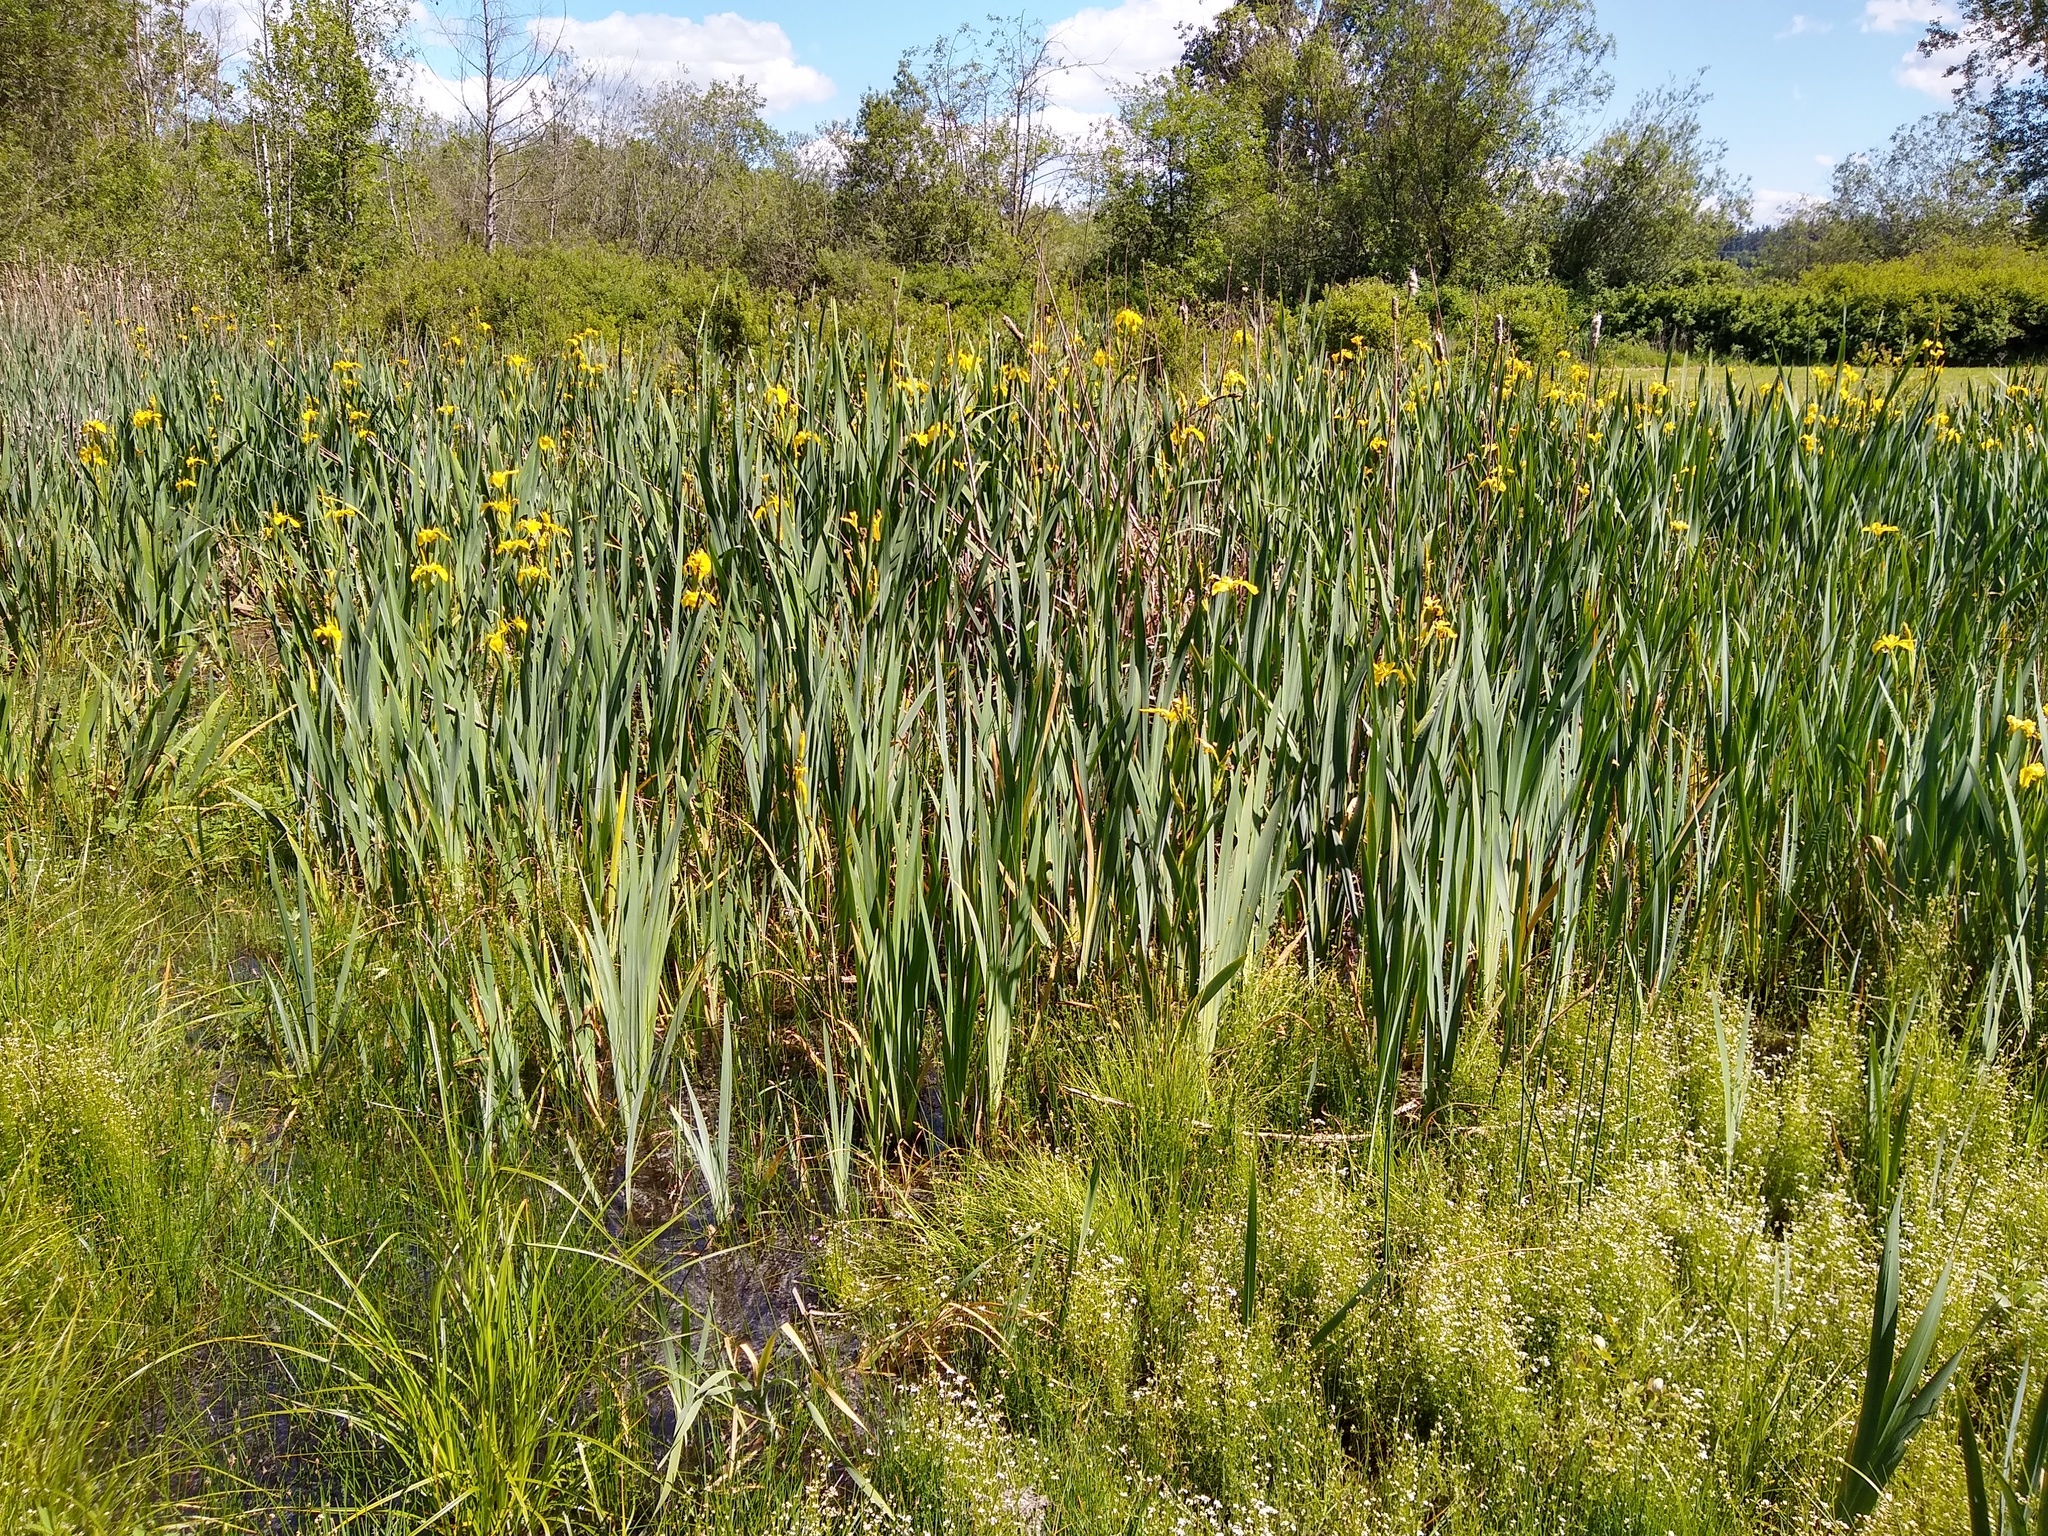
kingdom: Plantae
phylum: Tracheophyta
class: Liliopsida
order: Asparagales
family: Iridaceae
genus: Iris
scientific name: Iris pseudacorus
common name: Yellow flag
